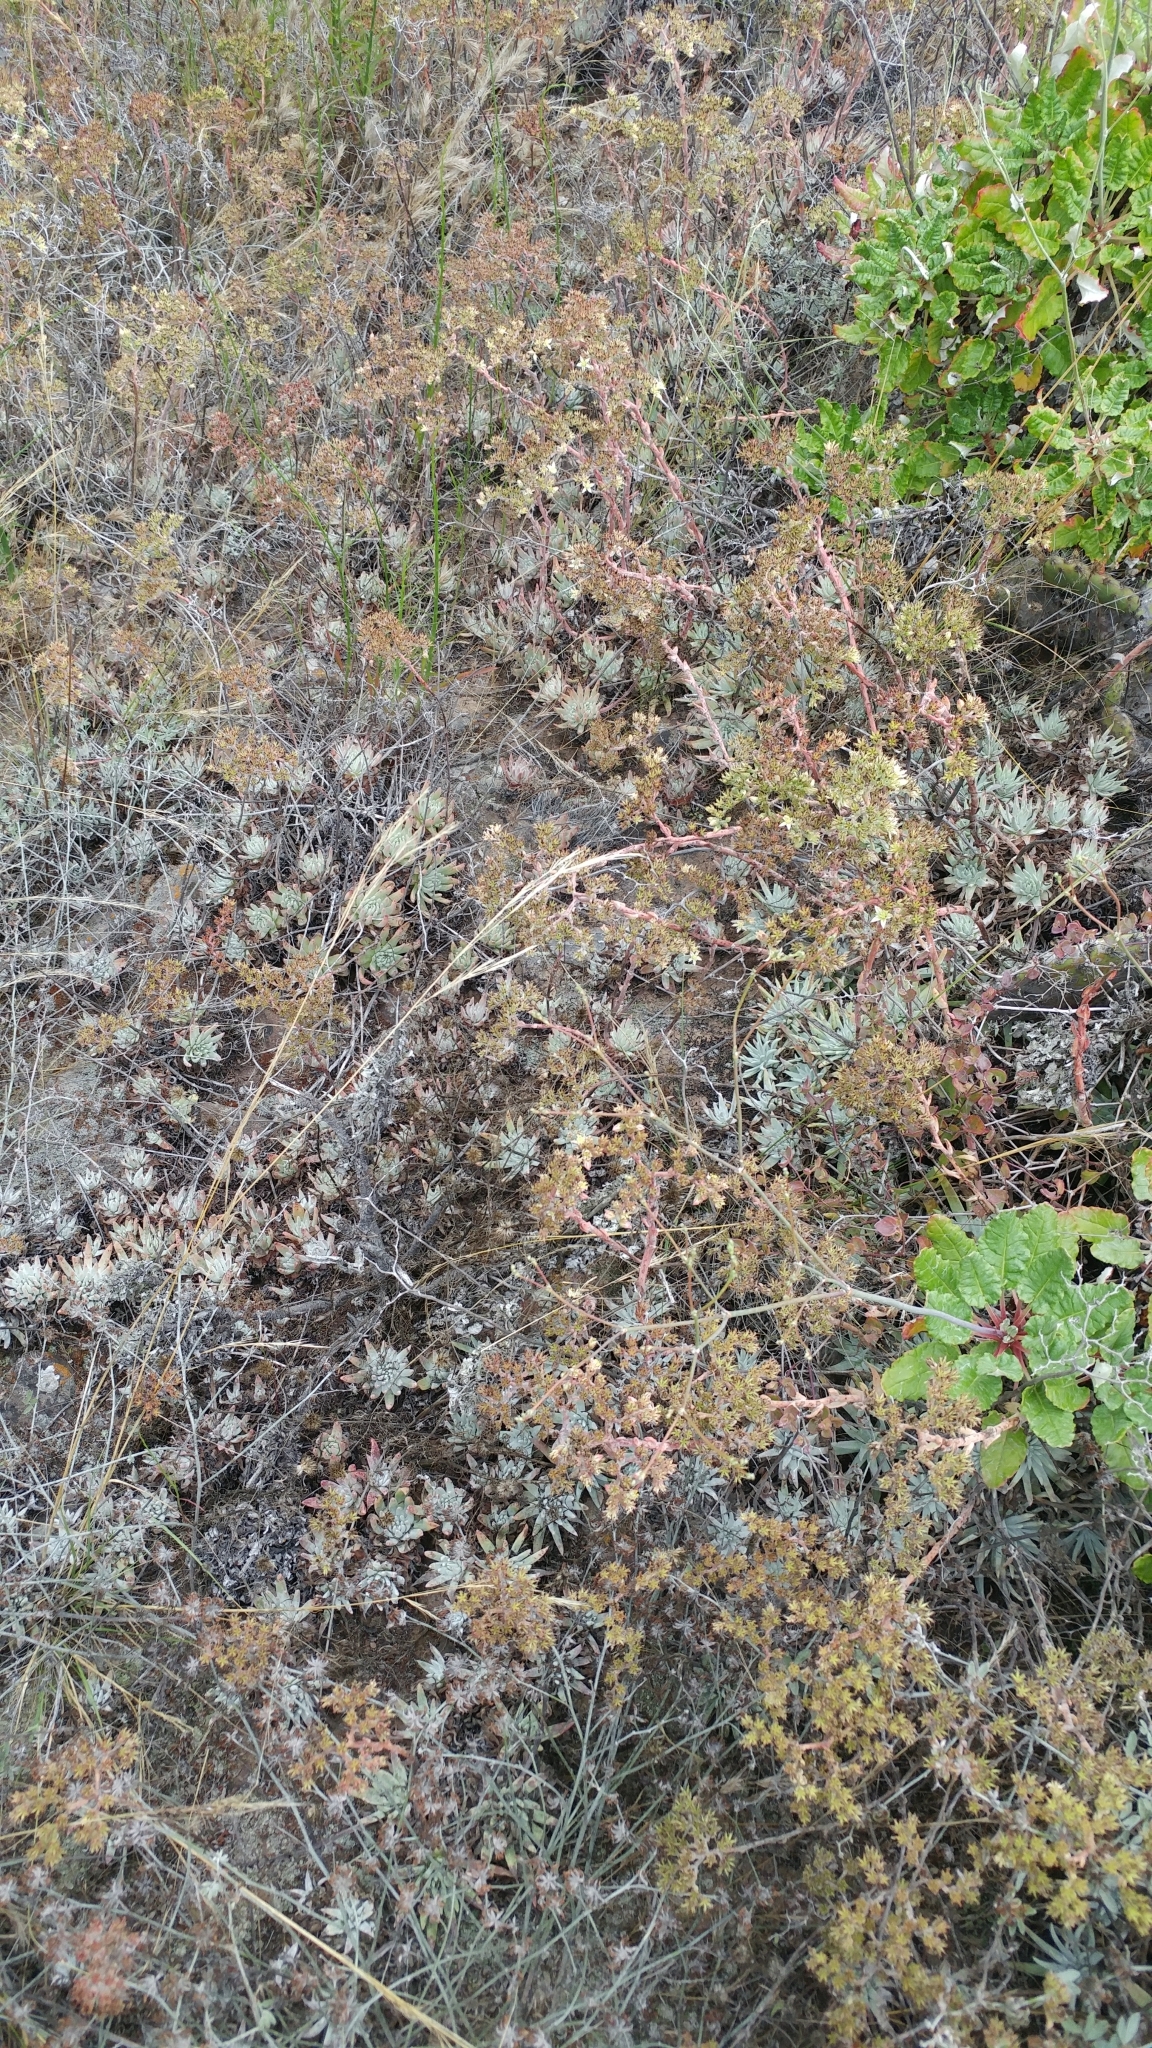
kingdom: Plantae
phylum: Tracheophyta
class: Magnoliopsida
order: Saxifragales
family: Crassulaceae
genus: Dudleya
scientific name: Dudleya virens
